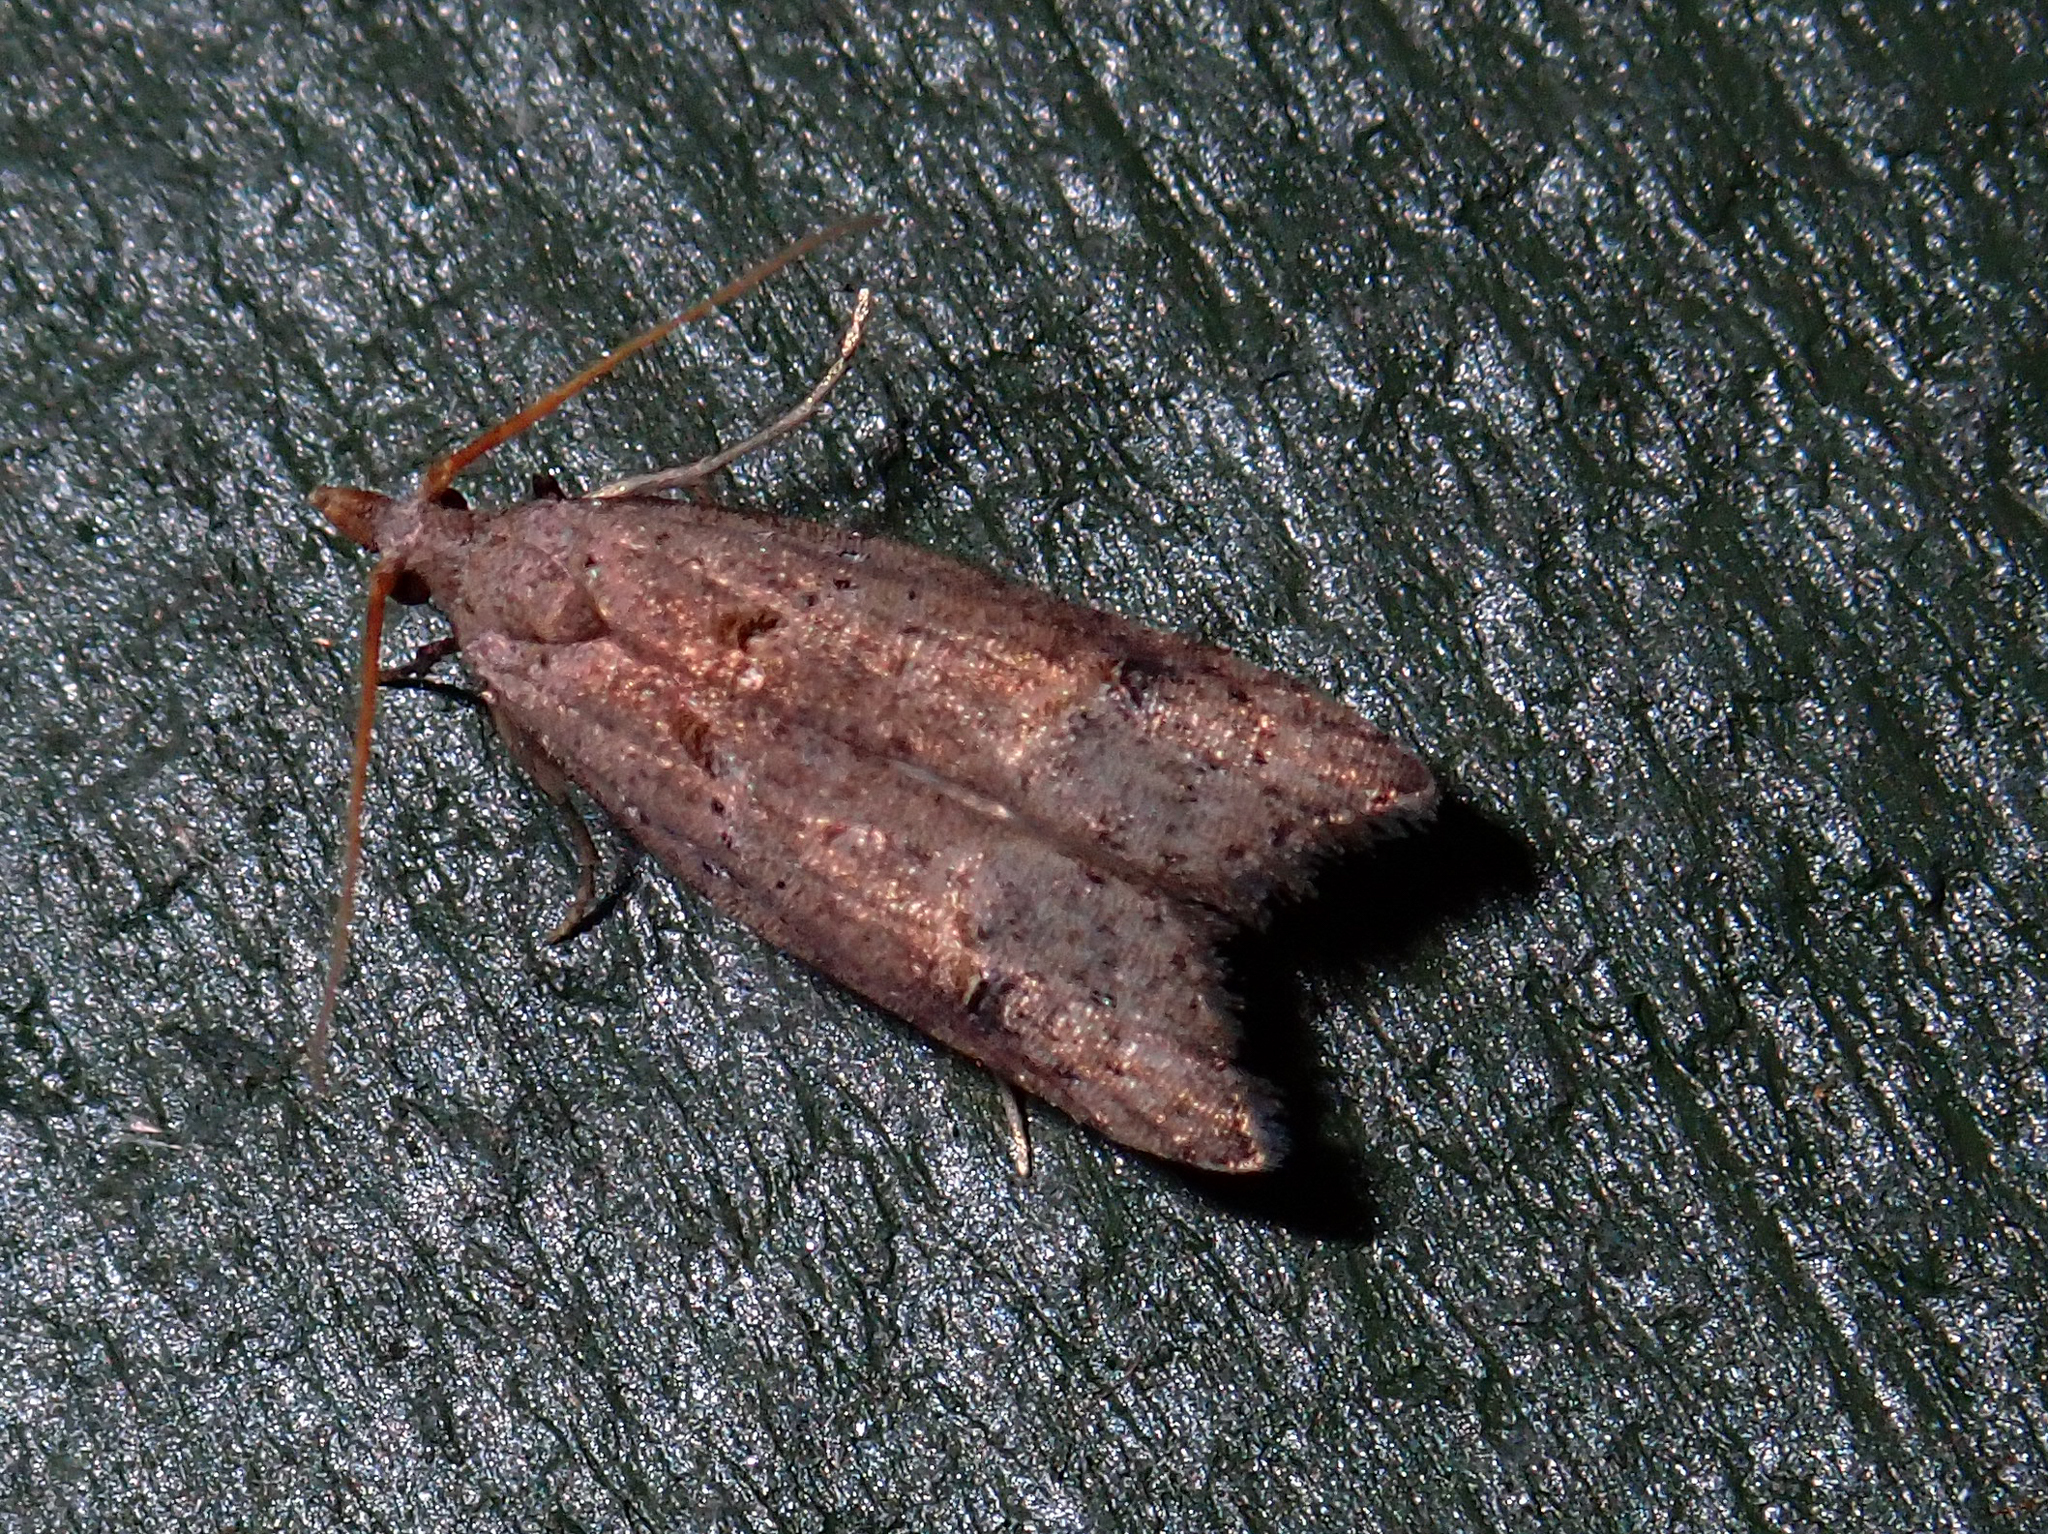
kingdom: Animalia
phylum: Arthropoda
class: Insecta
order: Lepidoptera
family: Carposinidae
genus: Carposina
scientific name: Carposina rubophaga
